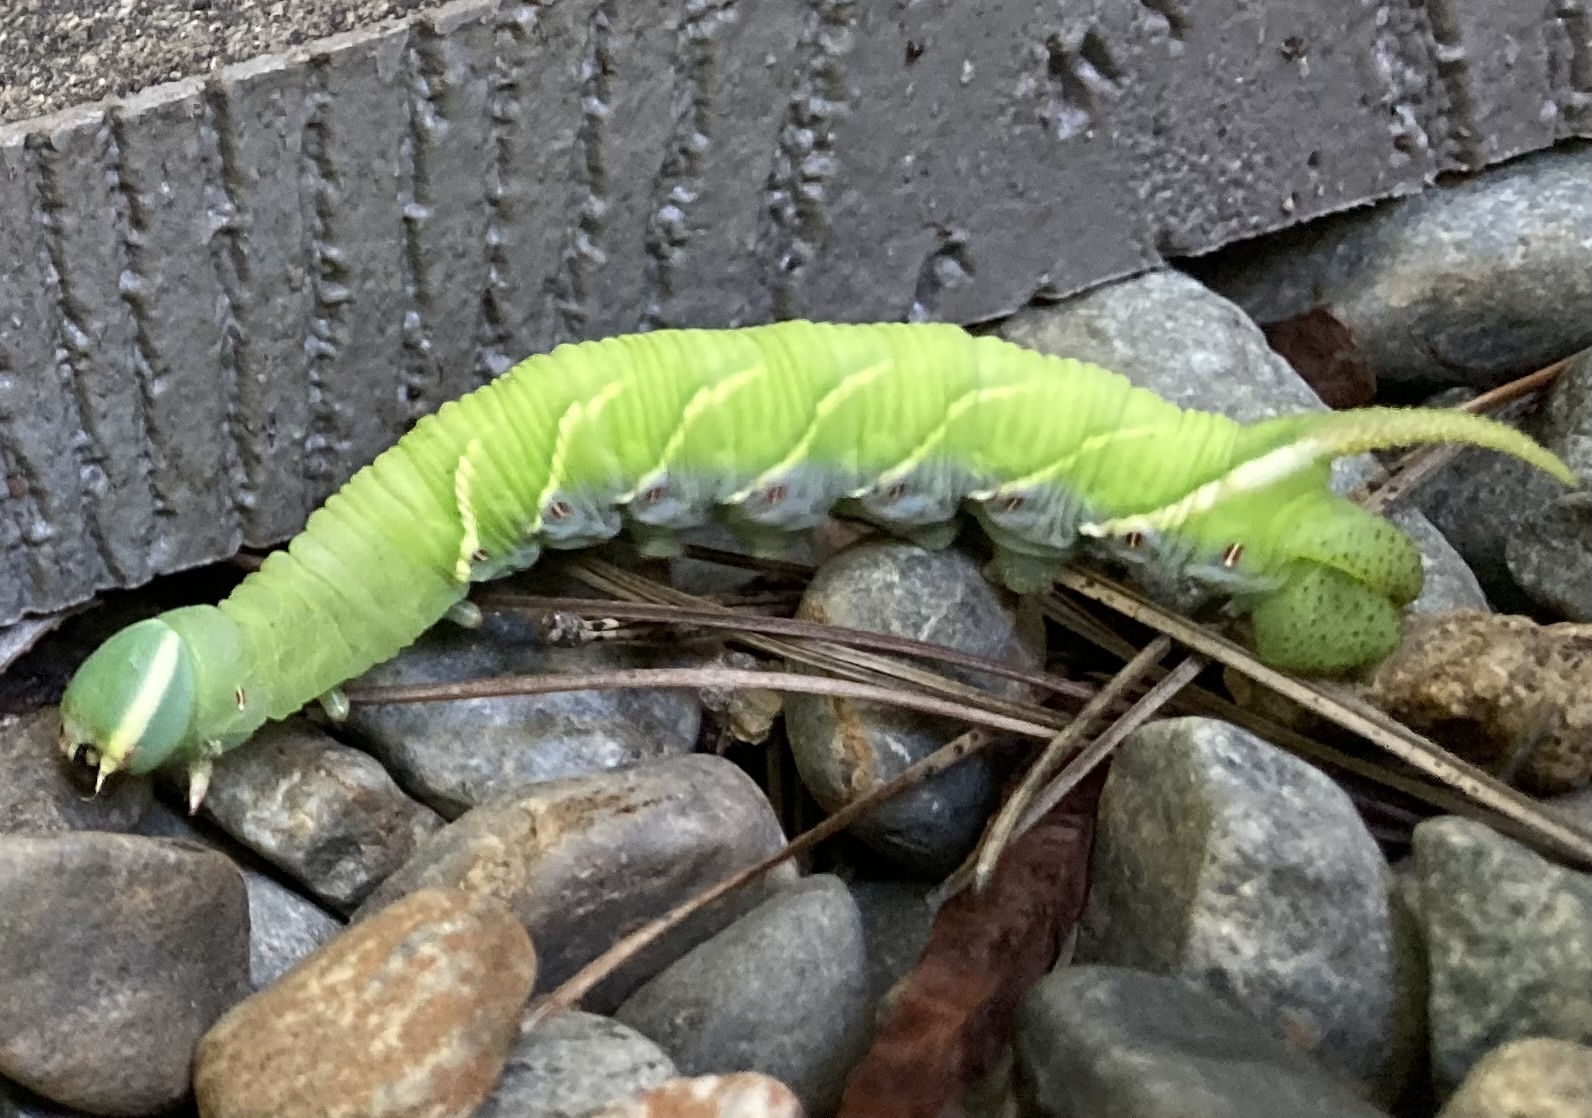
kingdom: Animalia
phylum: Arthropoda
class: Insecta
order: Lepidoptera
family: Sphingidae
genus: Ceratomia
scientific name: Ceratomia undulosa
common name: Waved sphinx
